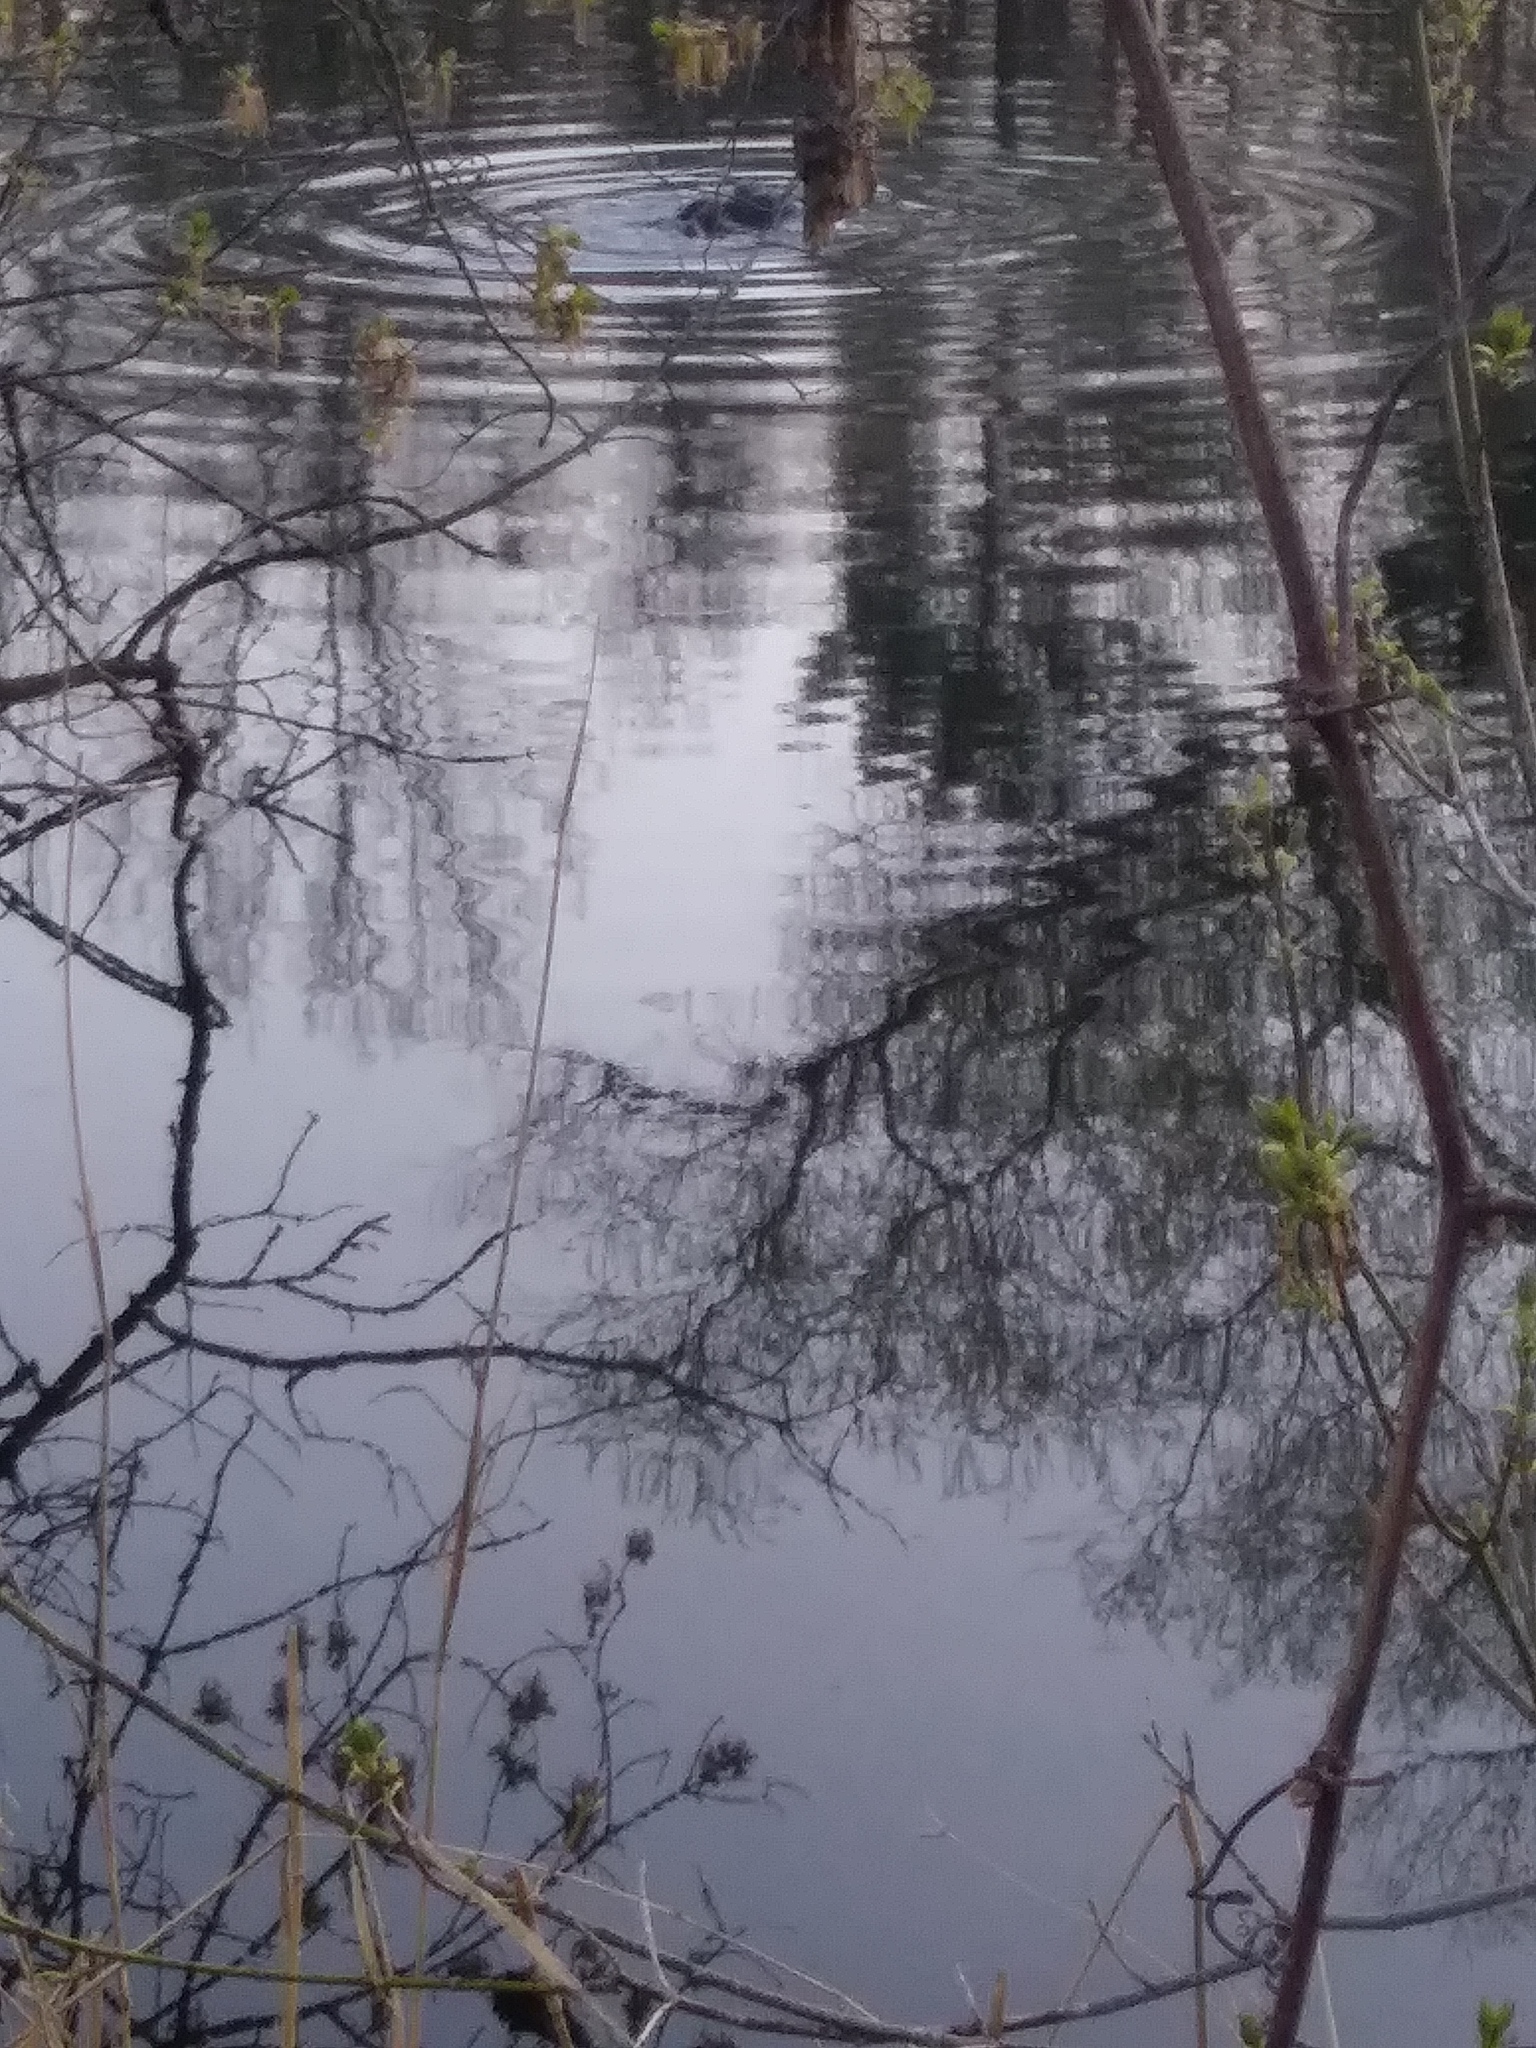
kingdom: Animalia
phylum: Chordata
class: Mammalia
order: Rodentia
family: Cricetidae
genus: Ondatra
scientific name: Ondatra zibethicus
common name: Muskrat
